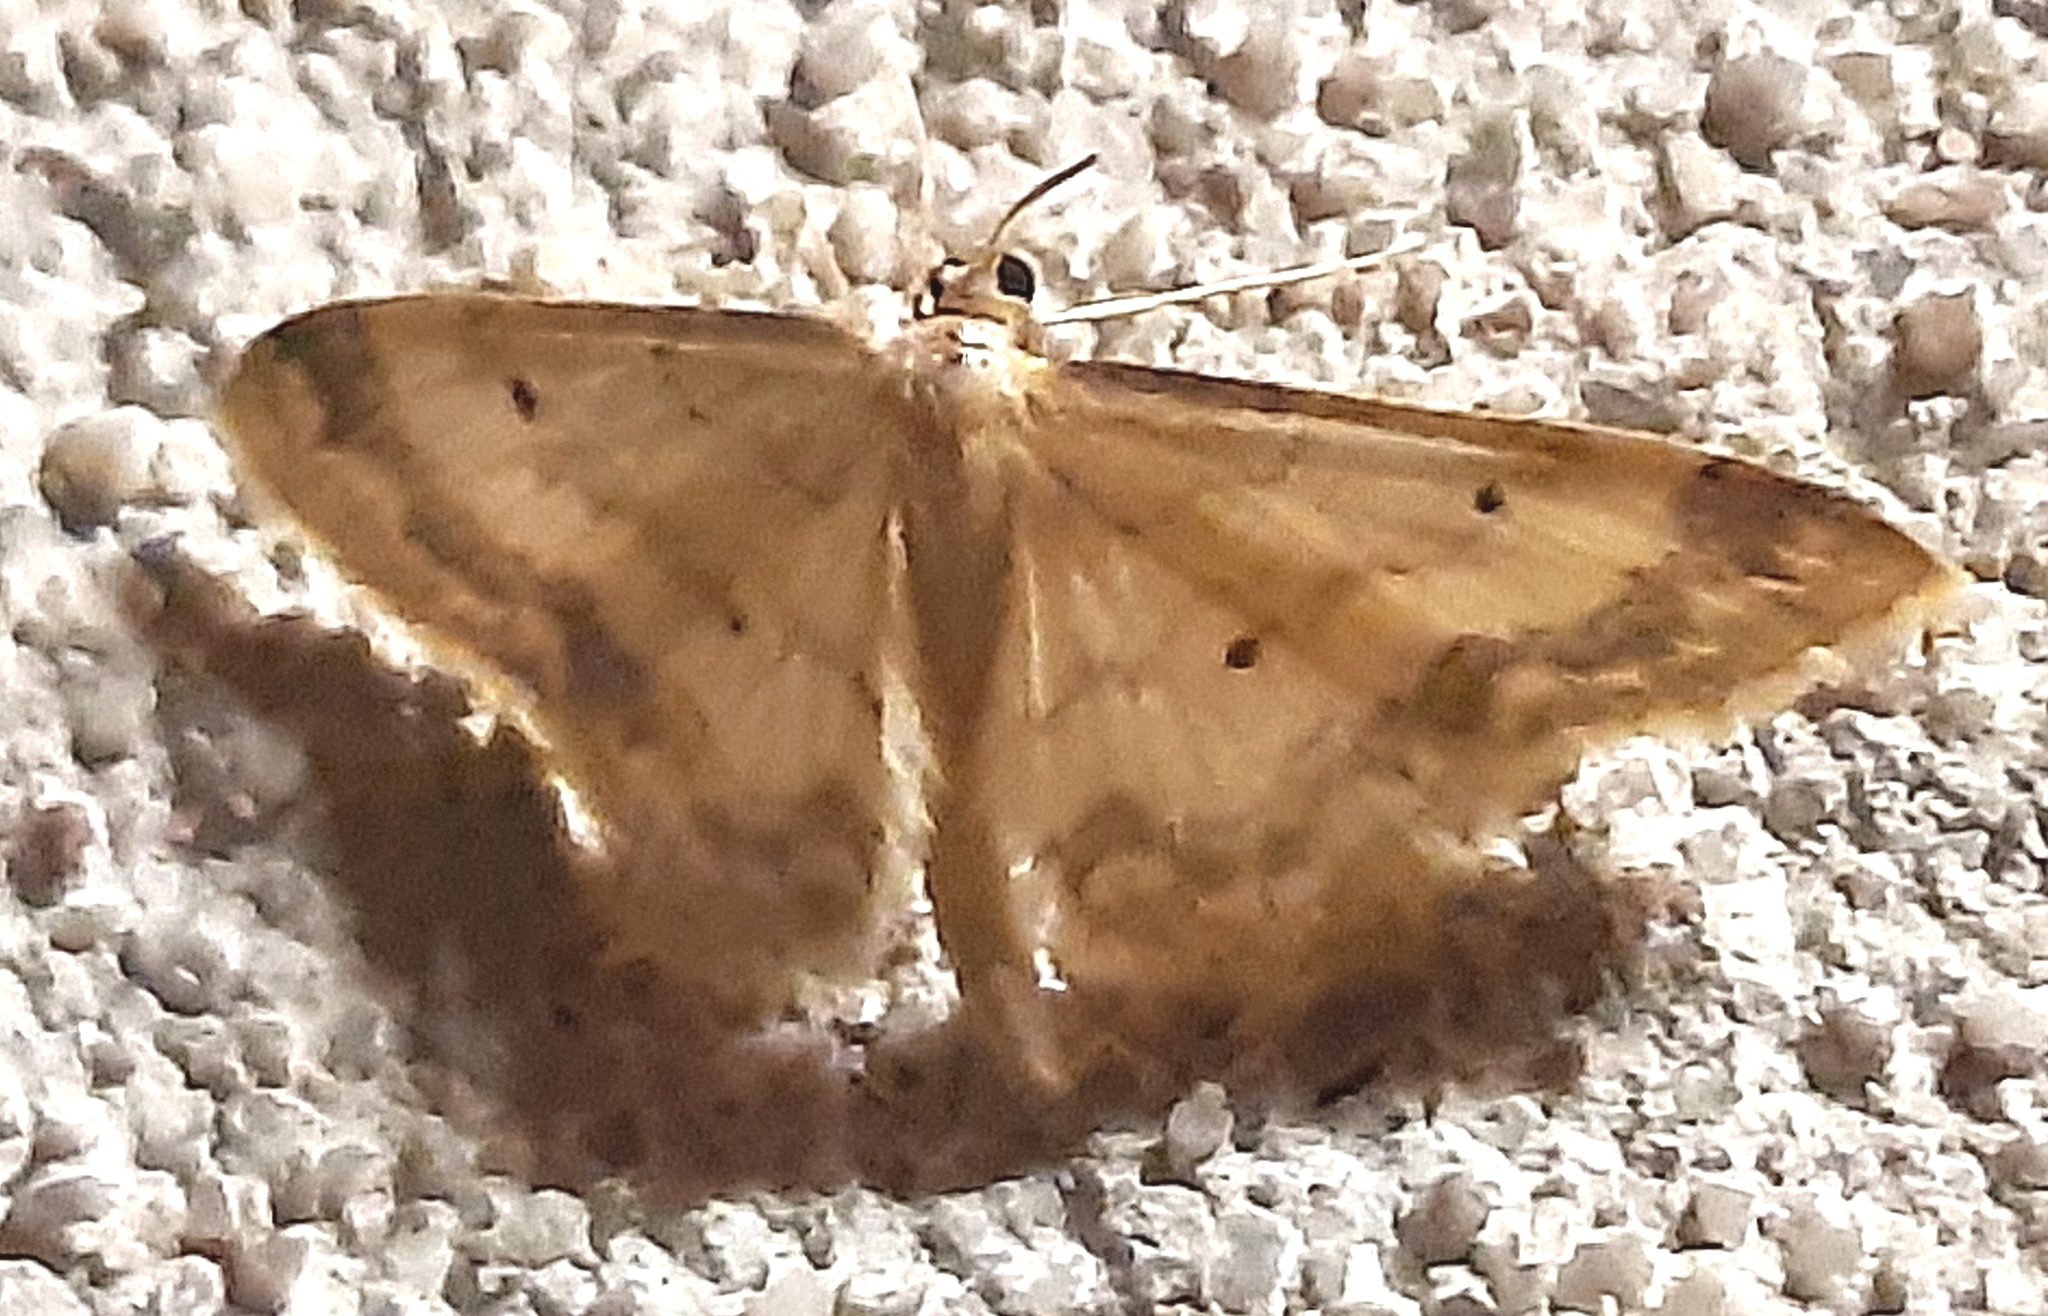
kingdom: Animalia
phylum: Arthropoda
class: Insecta
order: Lepidoptera
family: Geometridae
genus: Idaea
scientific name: Idaea biselata
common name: Small fan-footed wave
